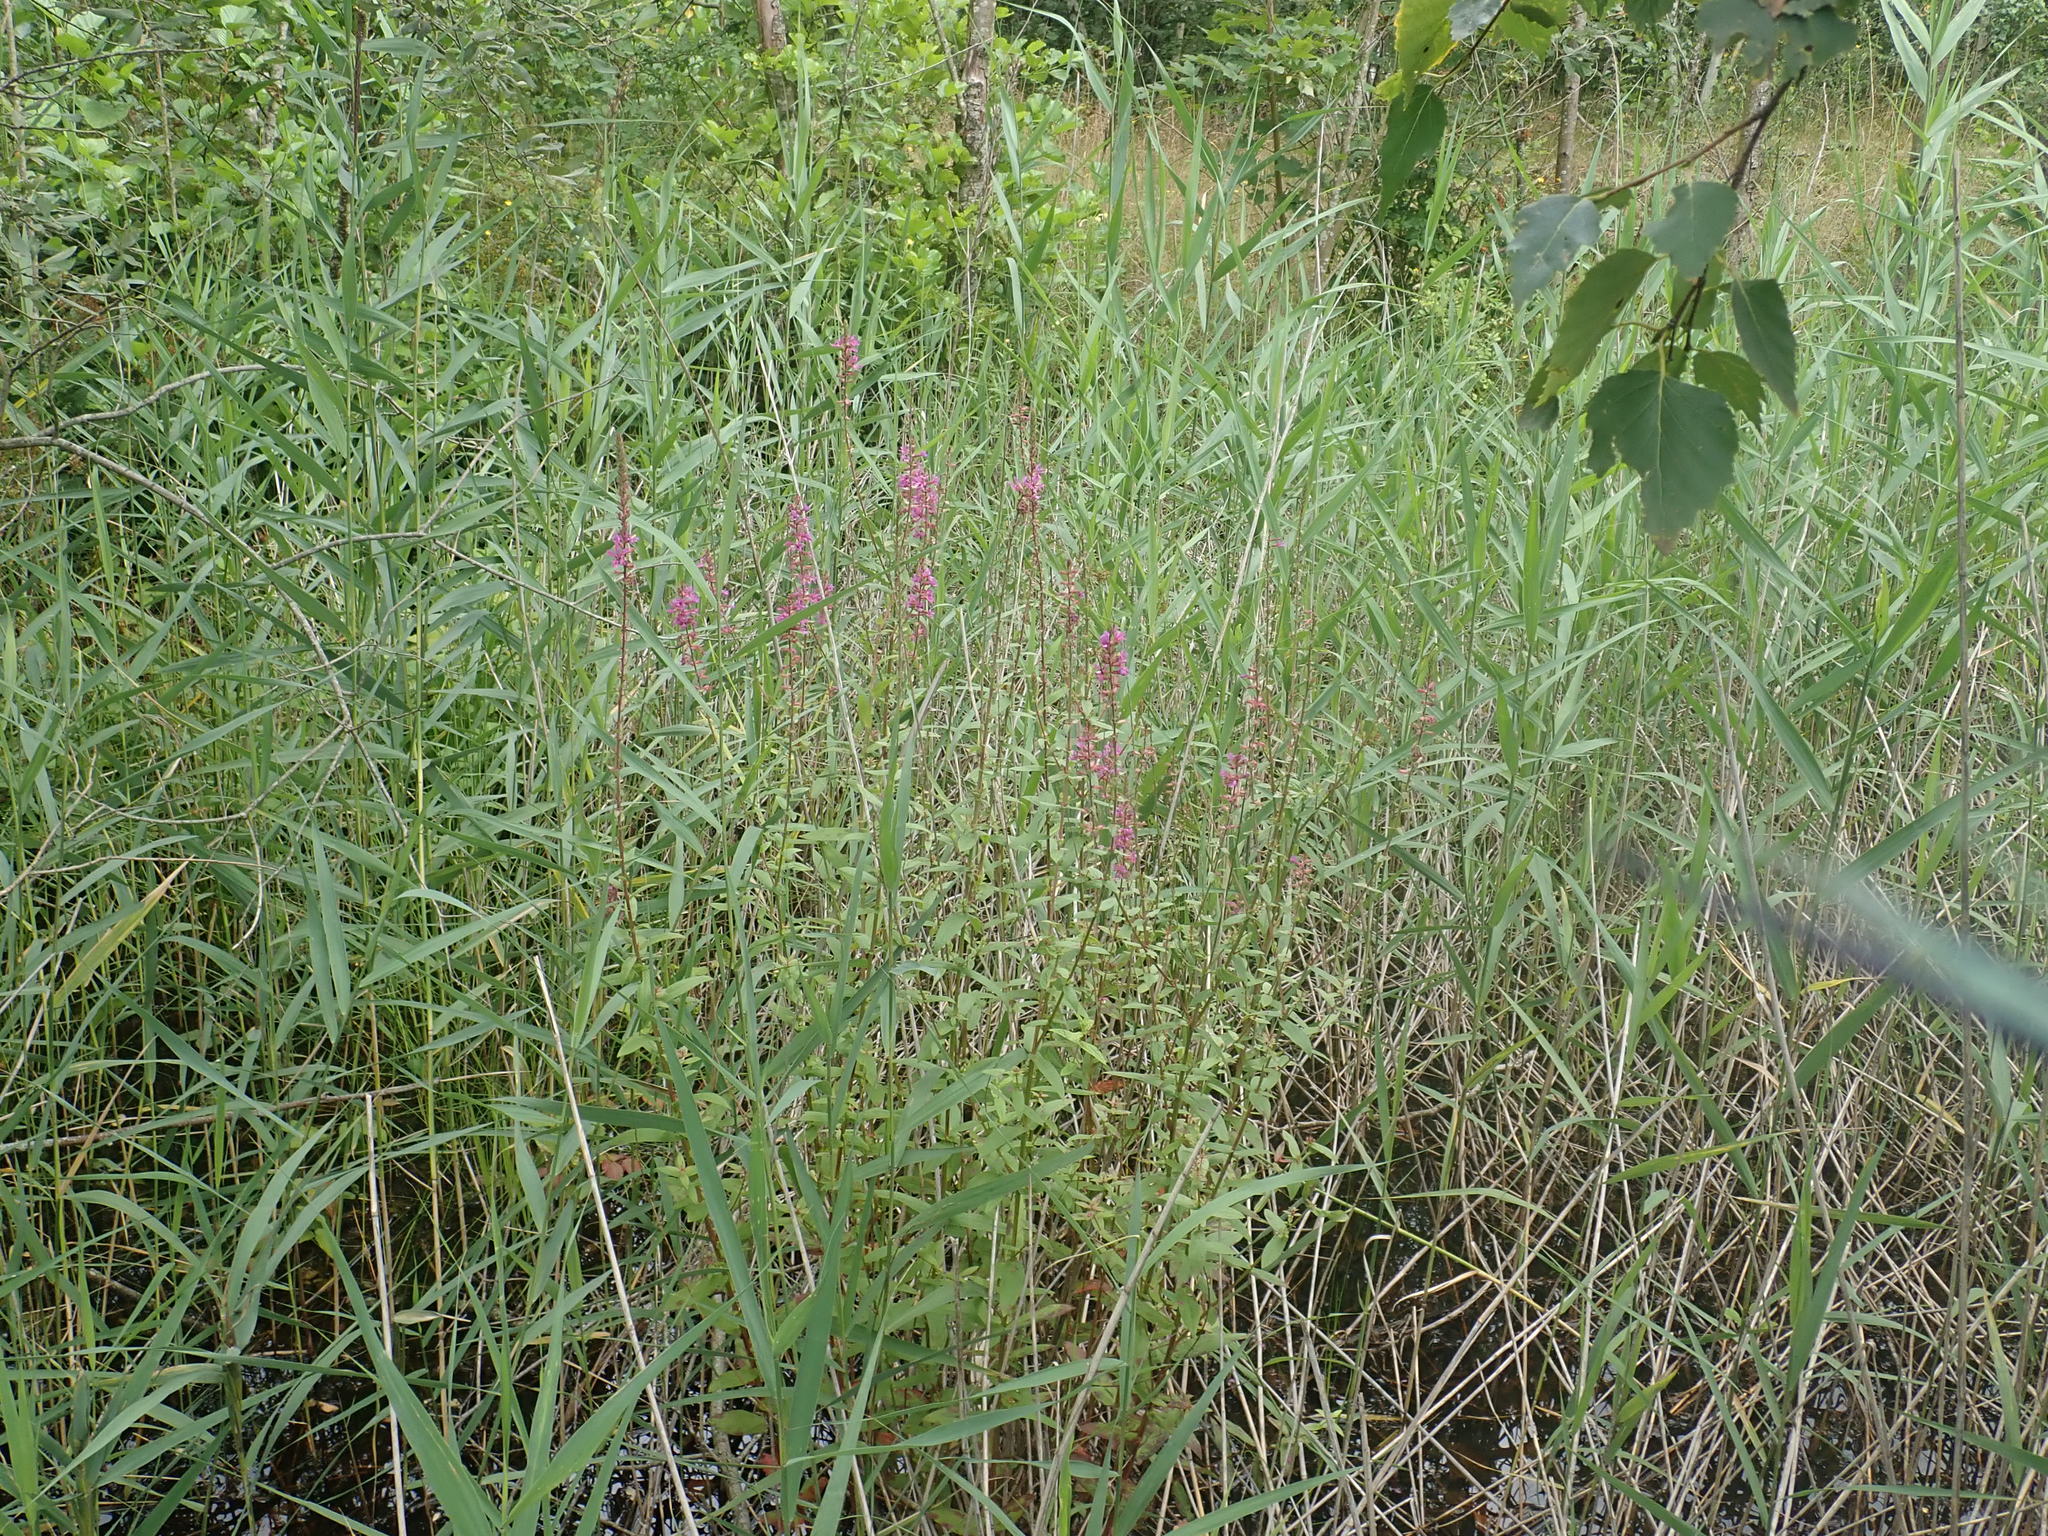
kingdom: Plantae
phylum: Tracheophyta
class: Magnoliopsida
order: Myrtales
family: Lythraceae
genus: Lythrum
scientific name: Lythrum salicaria
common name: Purple loosestrife
